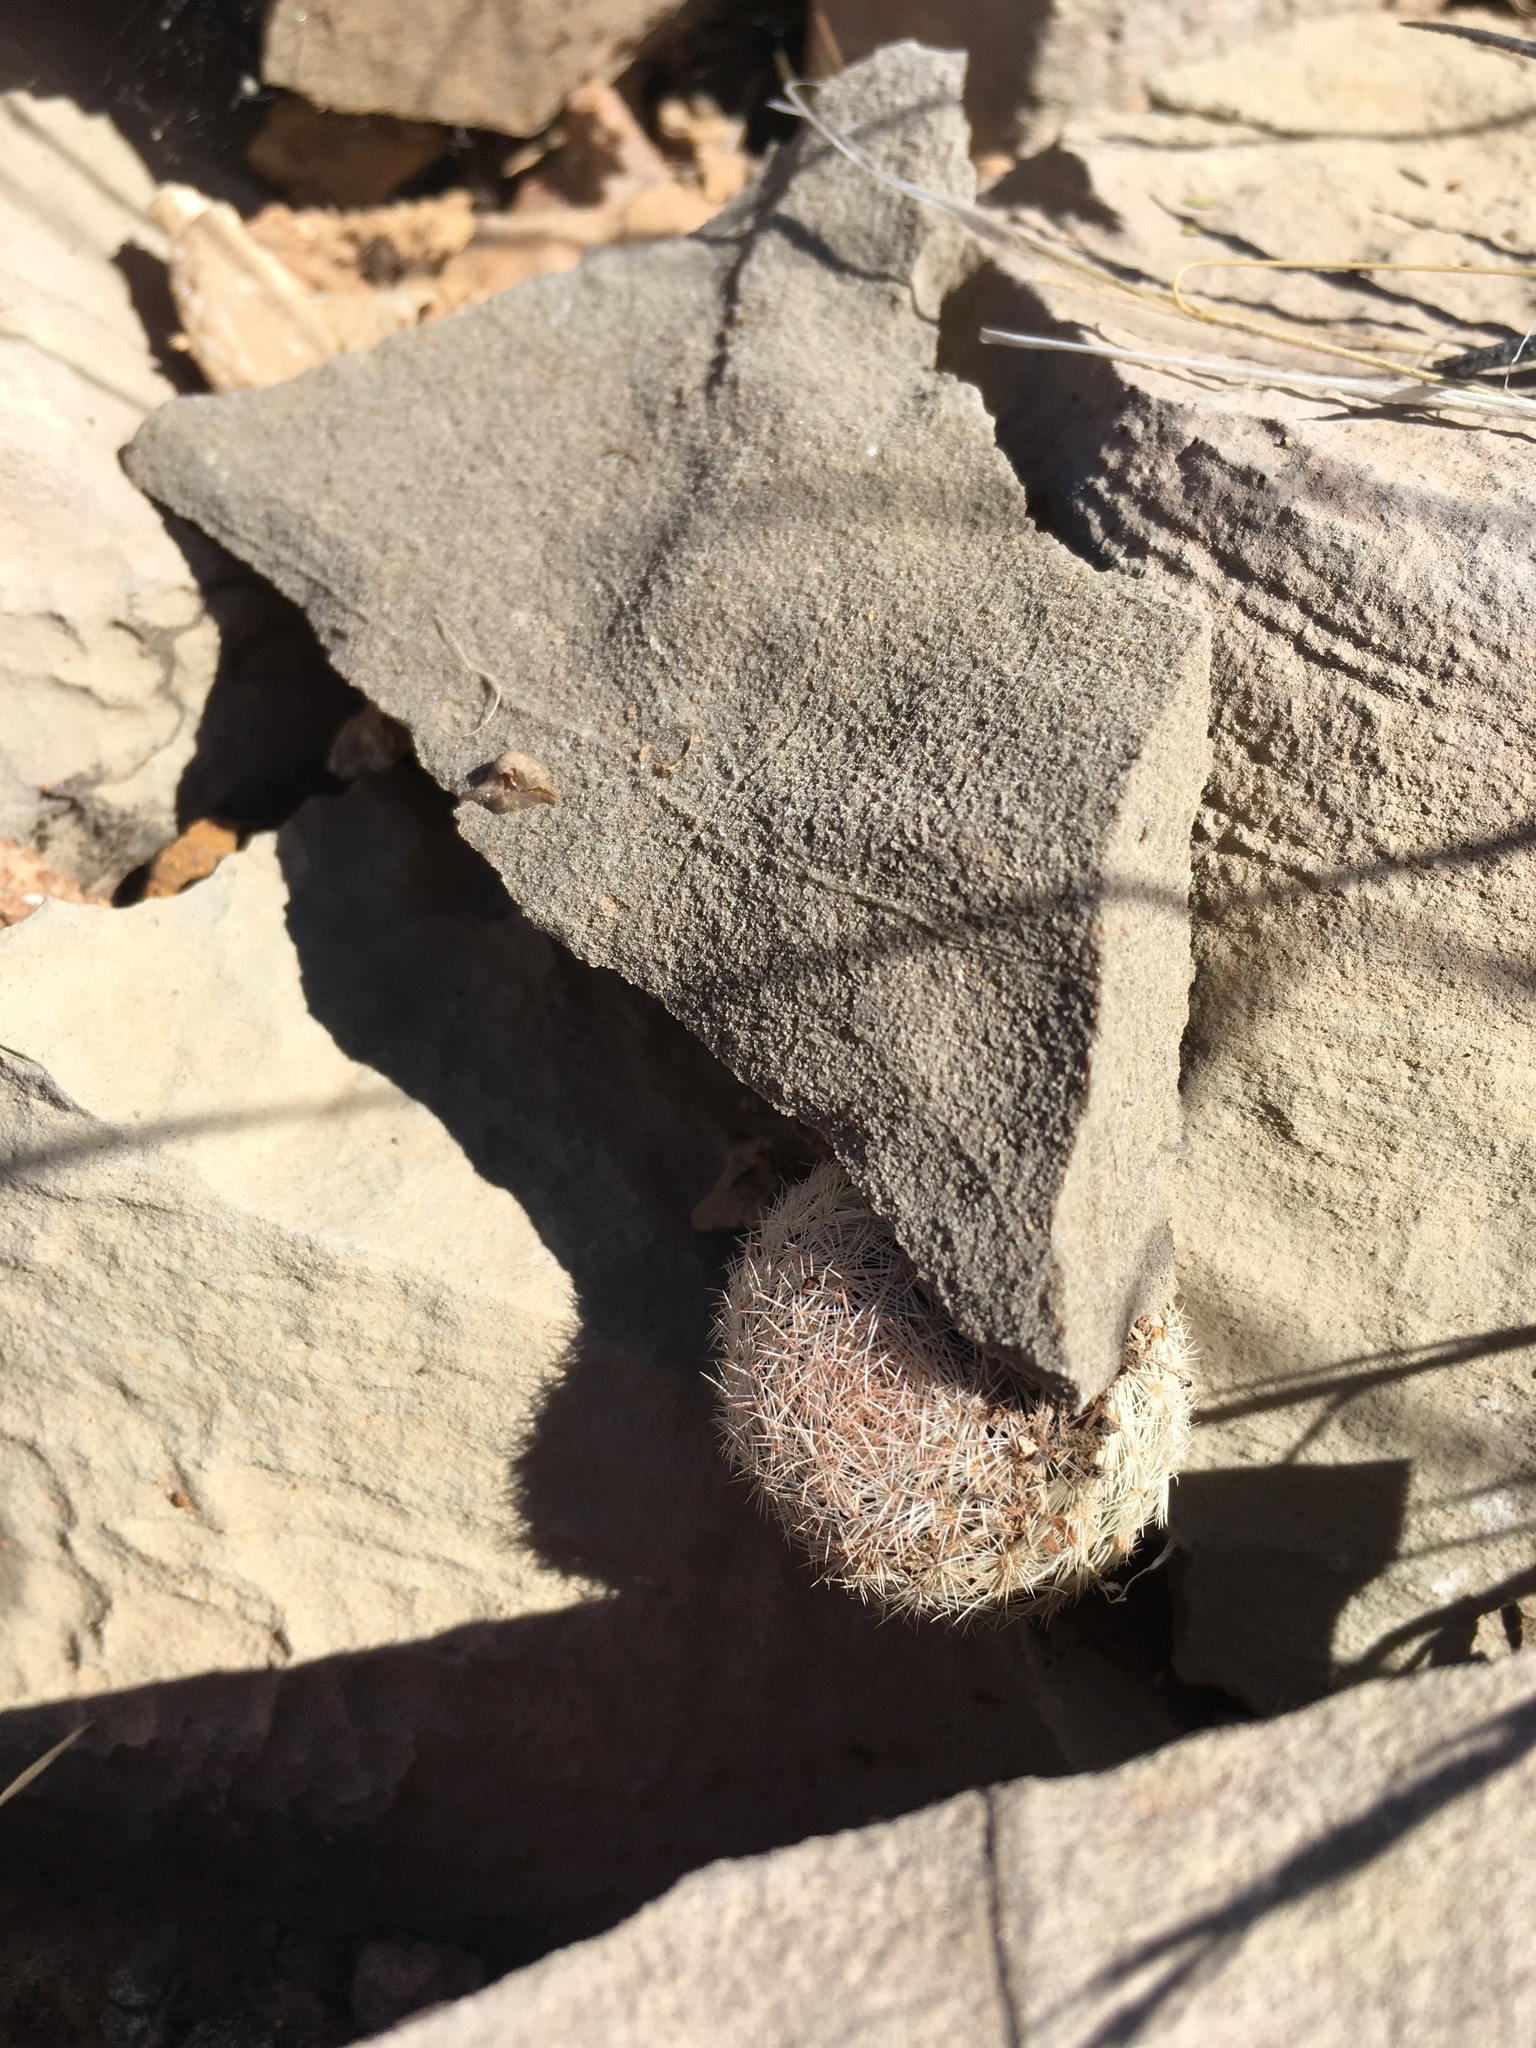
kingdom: Plantae
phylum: Tracheophyta
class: Magnoliopsida
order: Caryophyllales
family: Cactaceae
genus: Mammillaria
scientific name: Mammillaria lasiacantha
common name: Lace-spine nipple cactus
